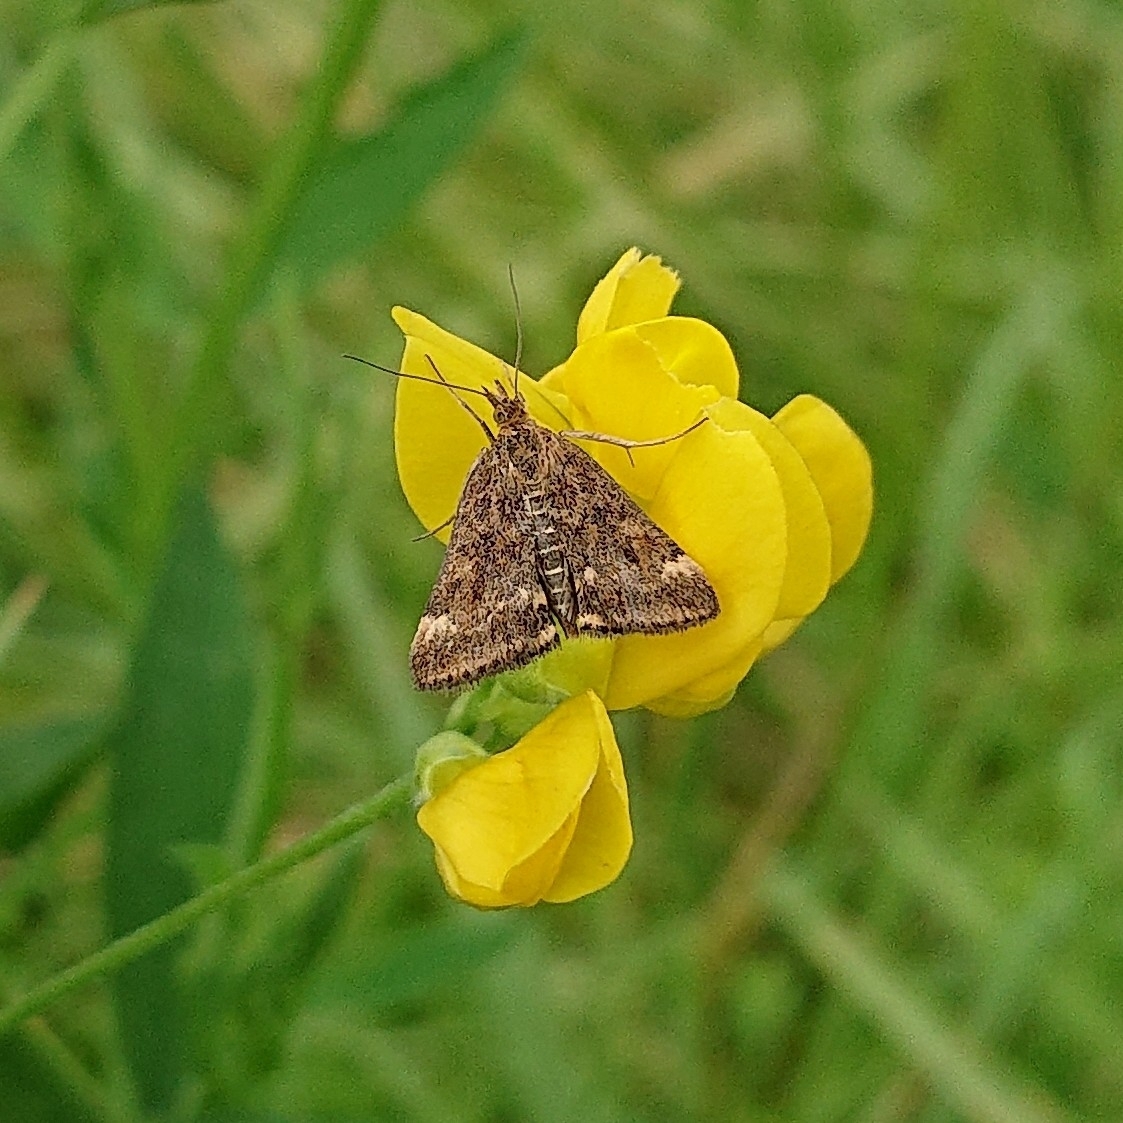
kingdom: Animalia
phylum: Arthropoda
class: Insecta
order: Lepidoptera
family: Crambidae
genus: Pyrausta
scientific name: Pyrausta despicata
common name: Straw-barred pearl
